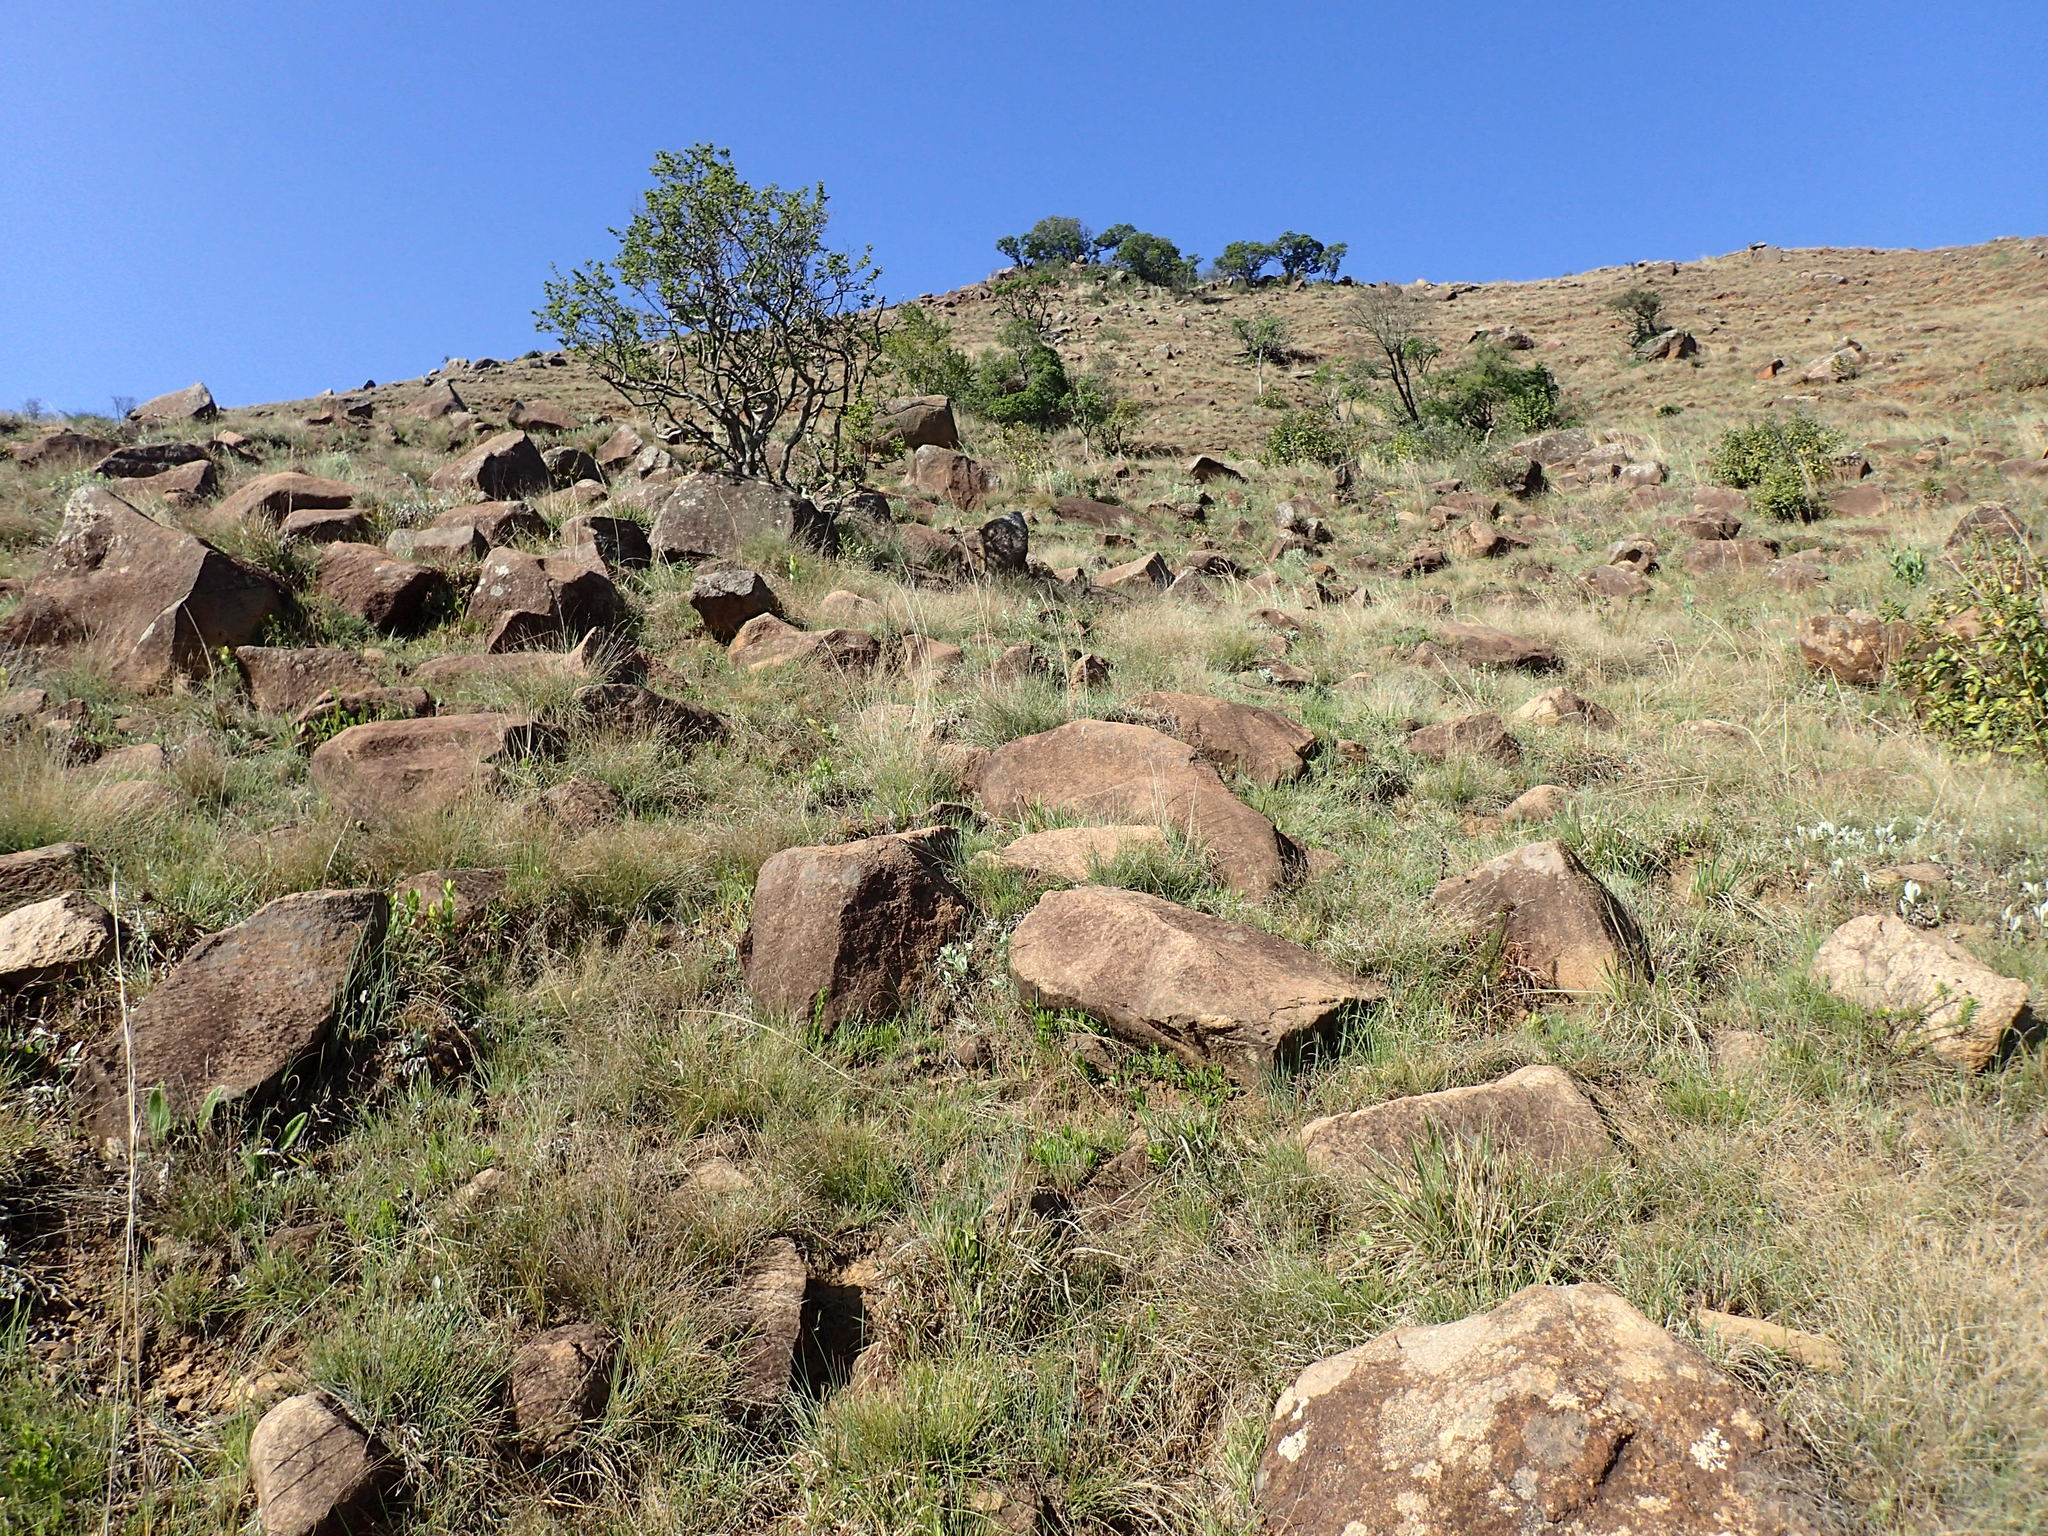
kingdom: Plantae
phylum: Tracheophyta
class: Magnoliopsida
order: Proteales
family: Proteaceae
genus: Protea
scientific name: Protea roupelliae
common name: Silver sugarbush
